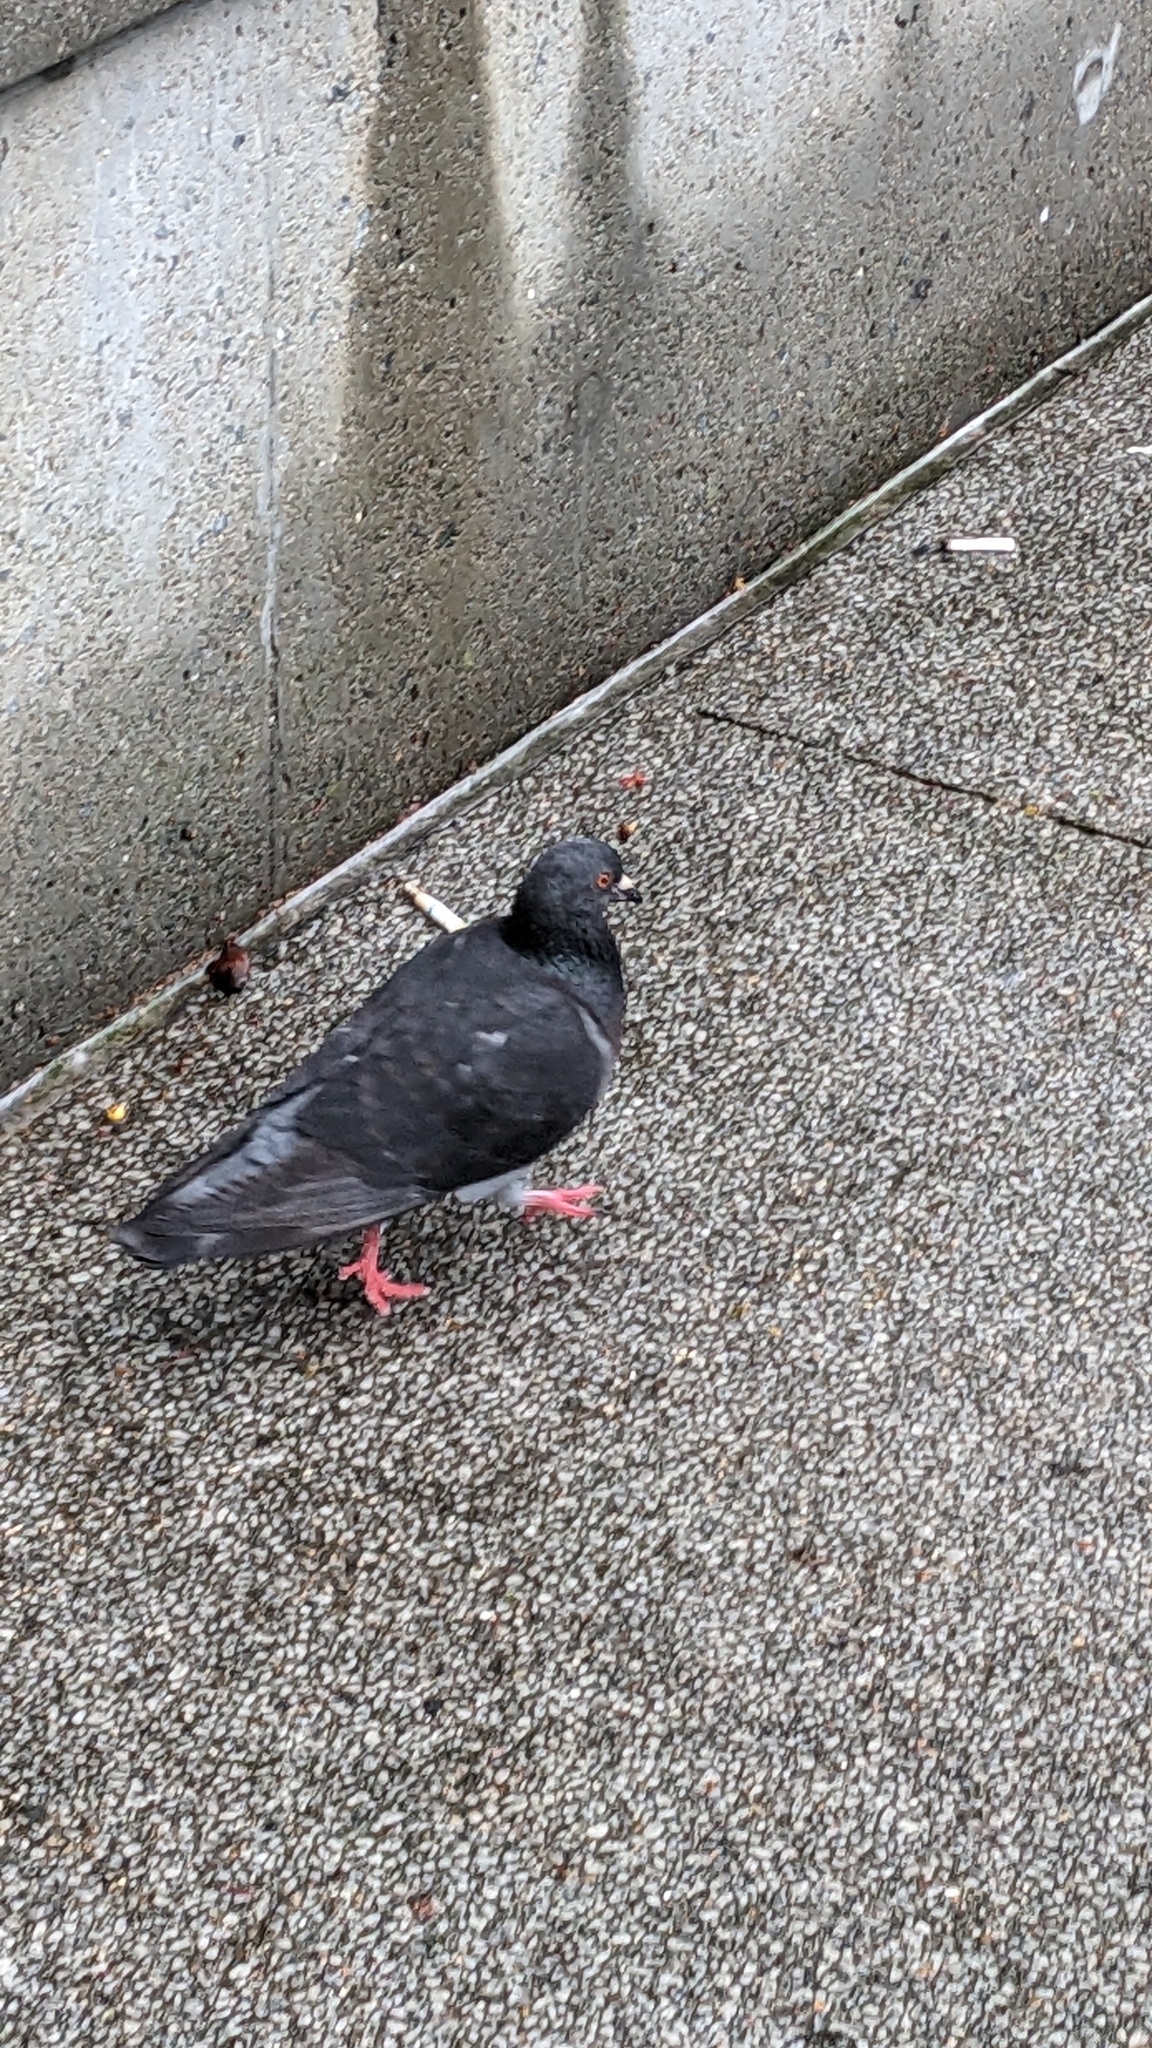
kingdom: Animalia
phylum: Chordata
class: Aves
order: Columbiformes
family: Columbidae
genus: Columba
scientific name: Columba livia
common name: Rock pigeon
